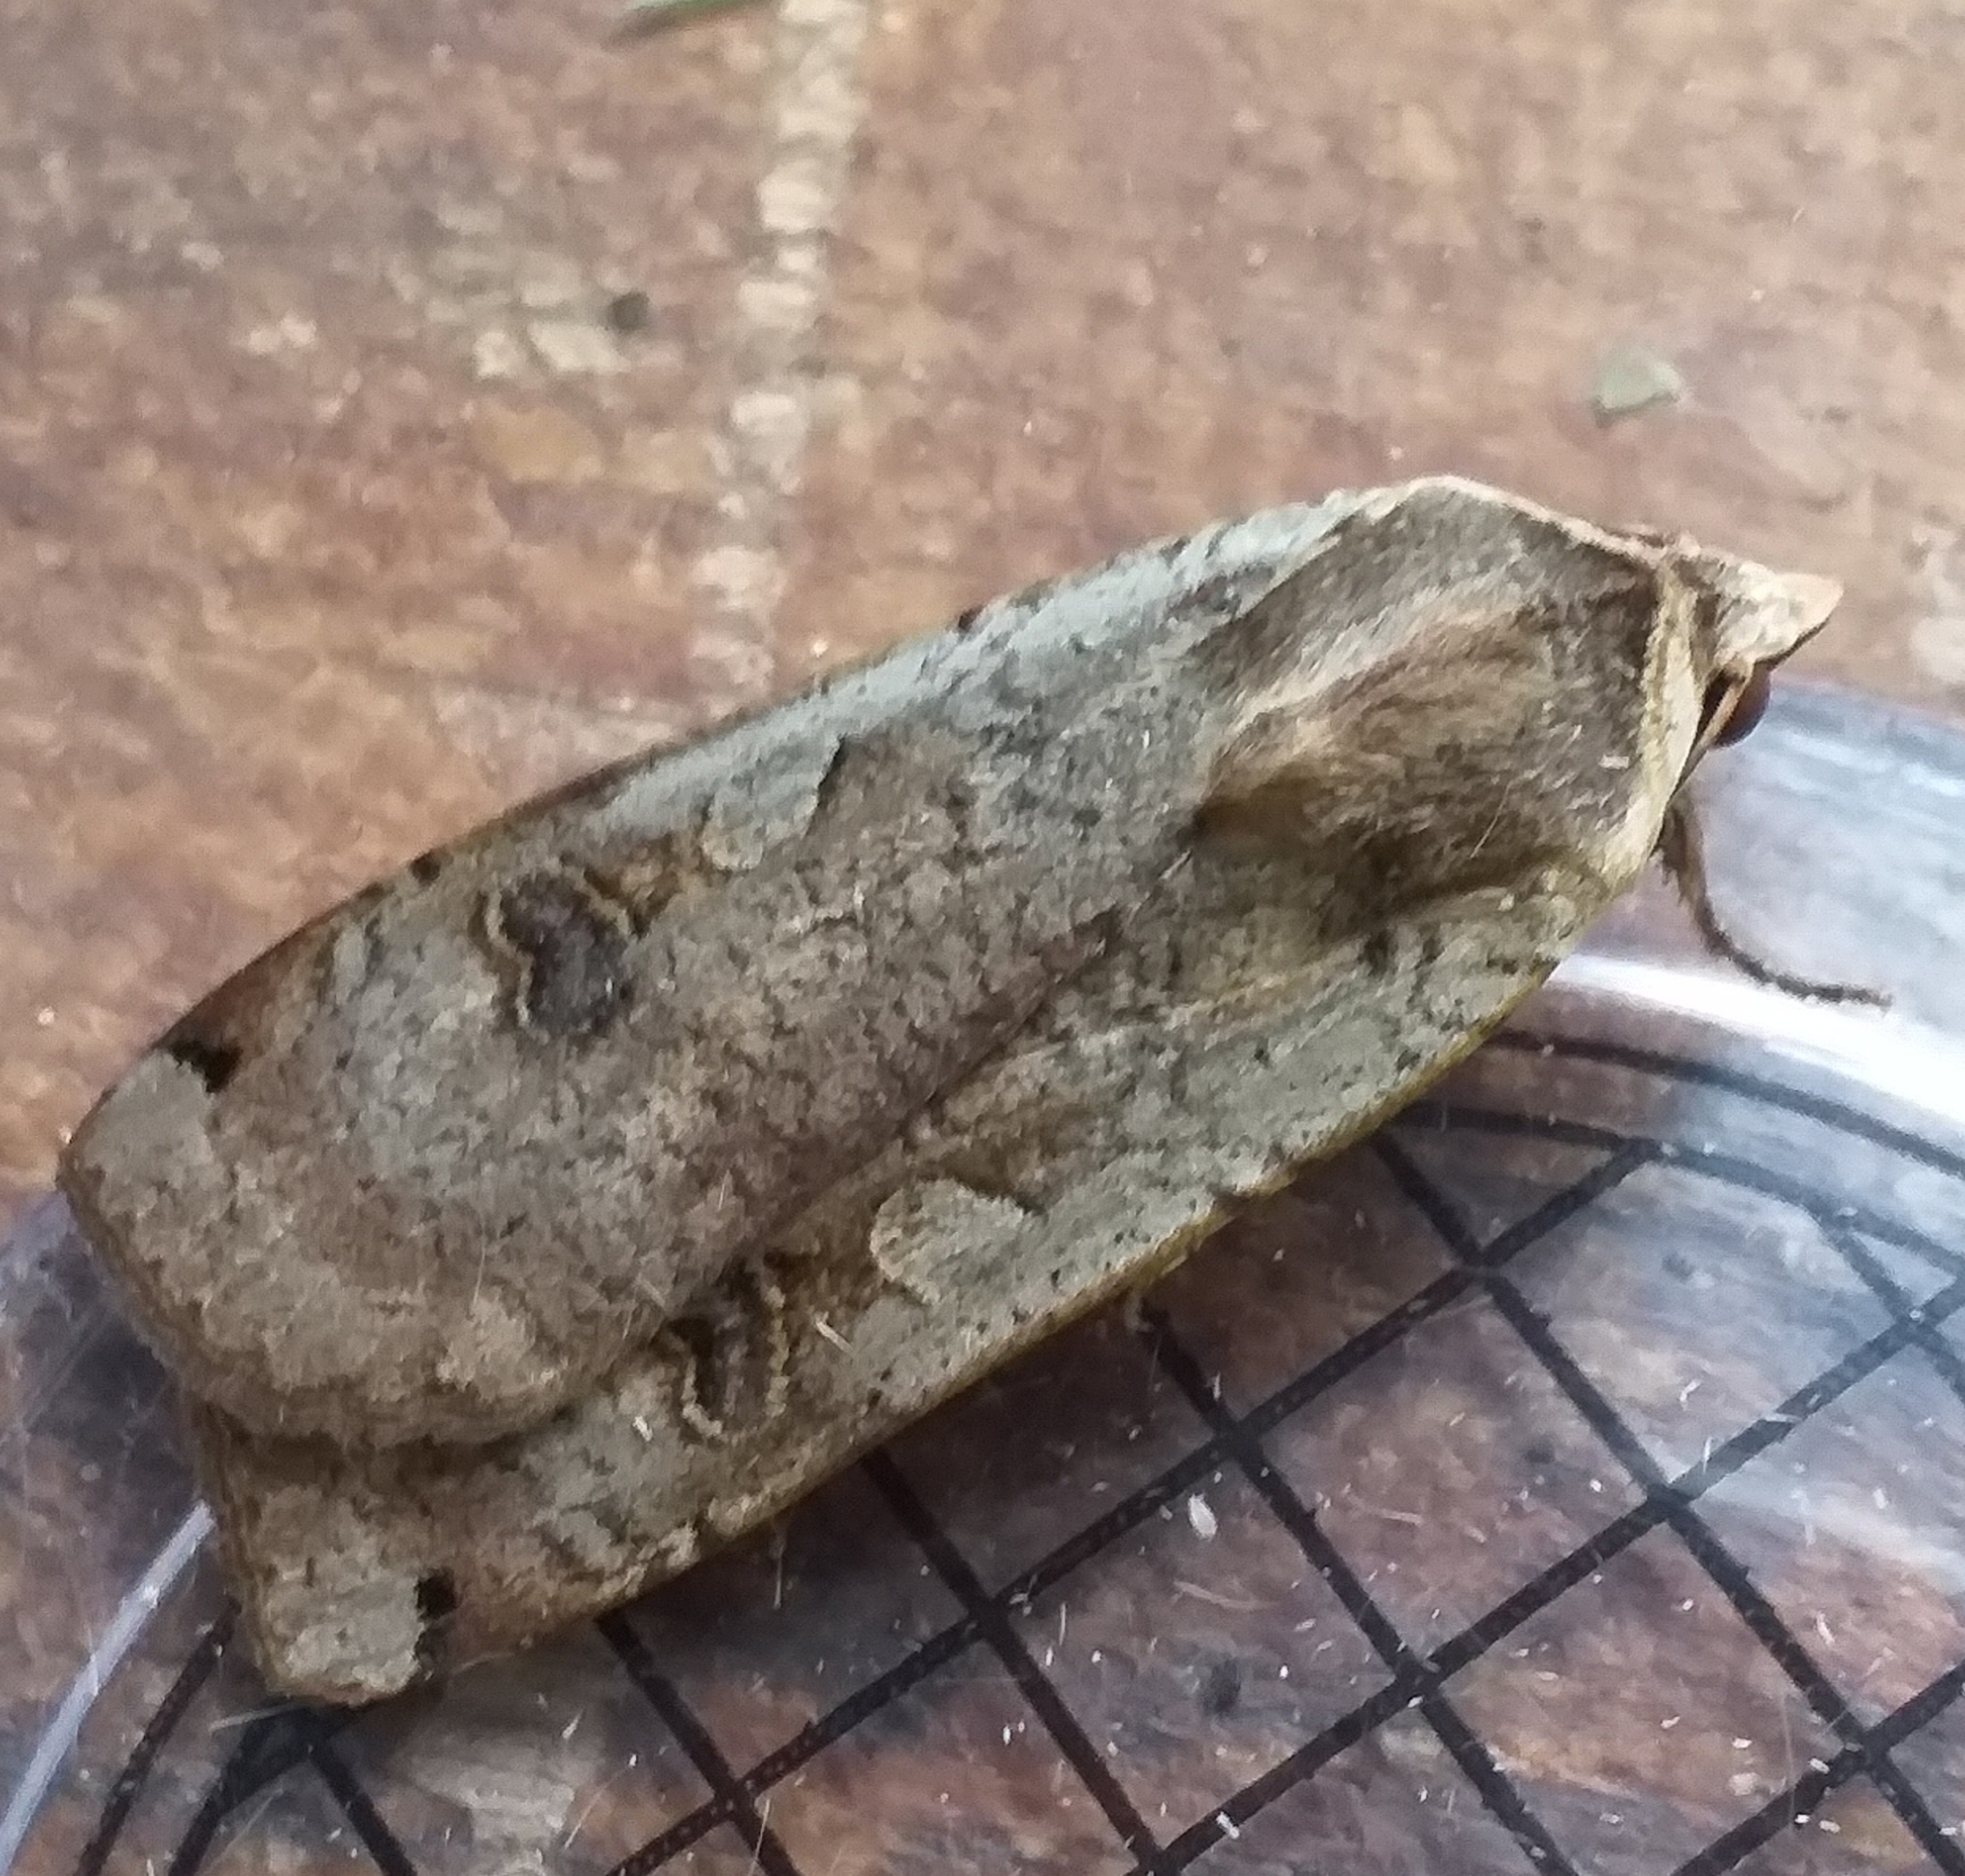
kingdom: Animalia
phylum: Arthropoda
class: Insecta
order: Lepidoptera
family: Noctuidae
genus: Noctua
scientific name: Noctua pronuba
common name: Large yellow underwing
